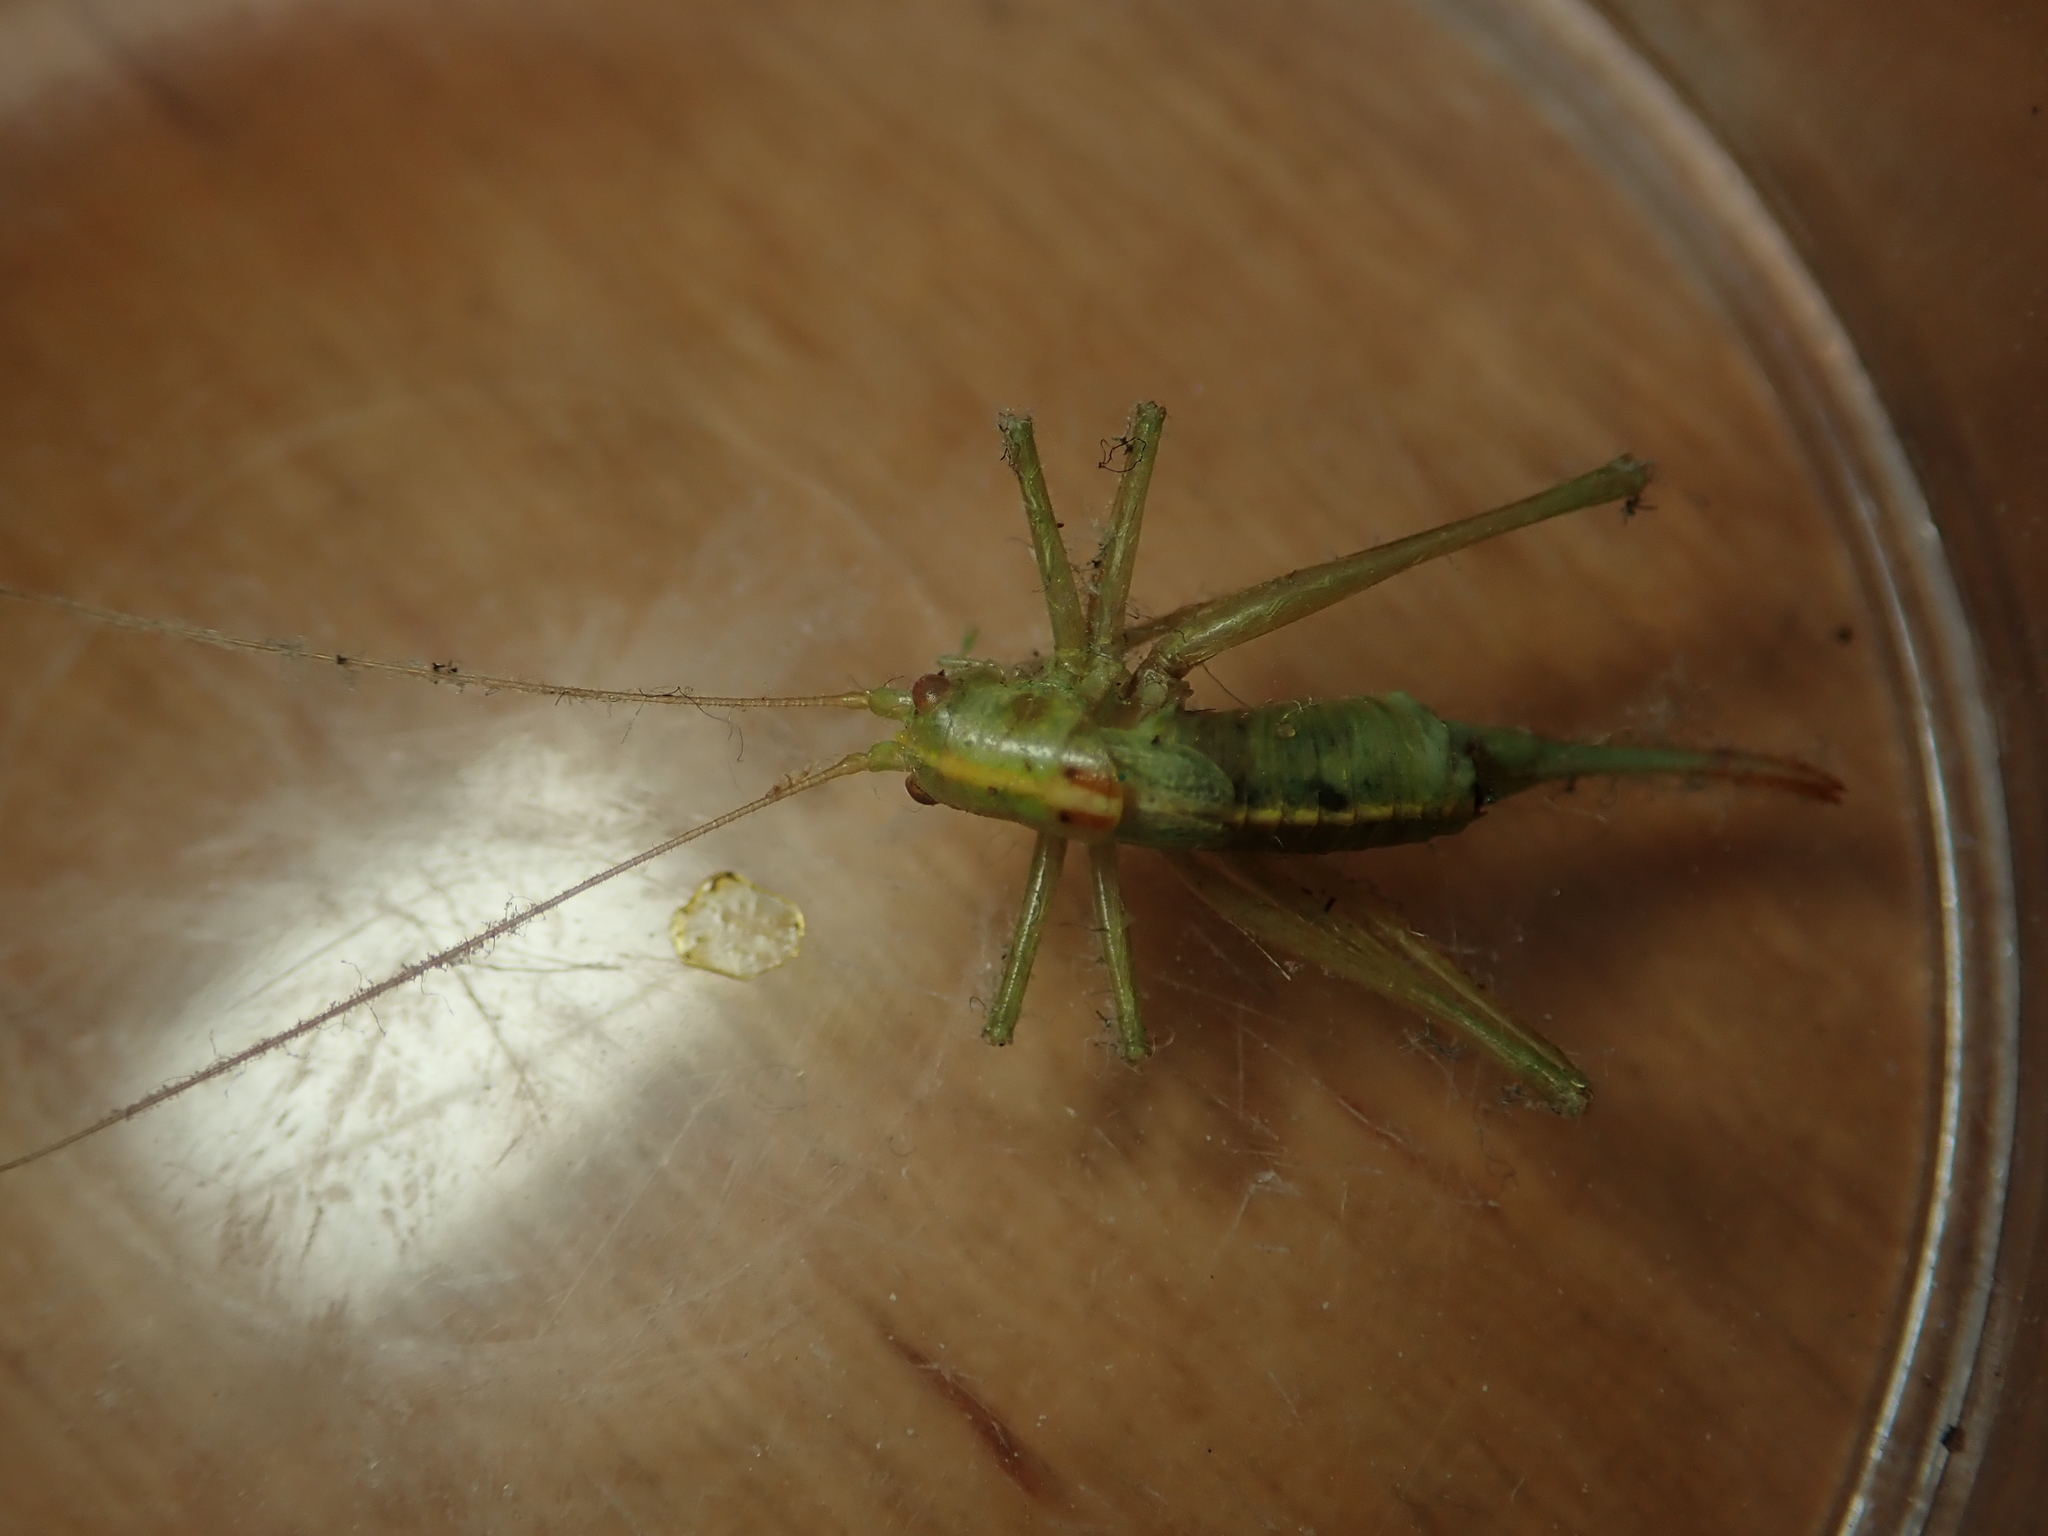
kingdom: Animalia
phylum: Arthropoda
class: Insecta
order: Orthoptera
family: Tettigoniidae
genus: Meconema
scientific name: Meconema meridionale
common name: Southern oak bush-cricket
